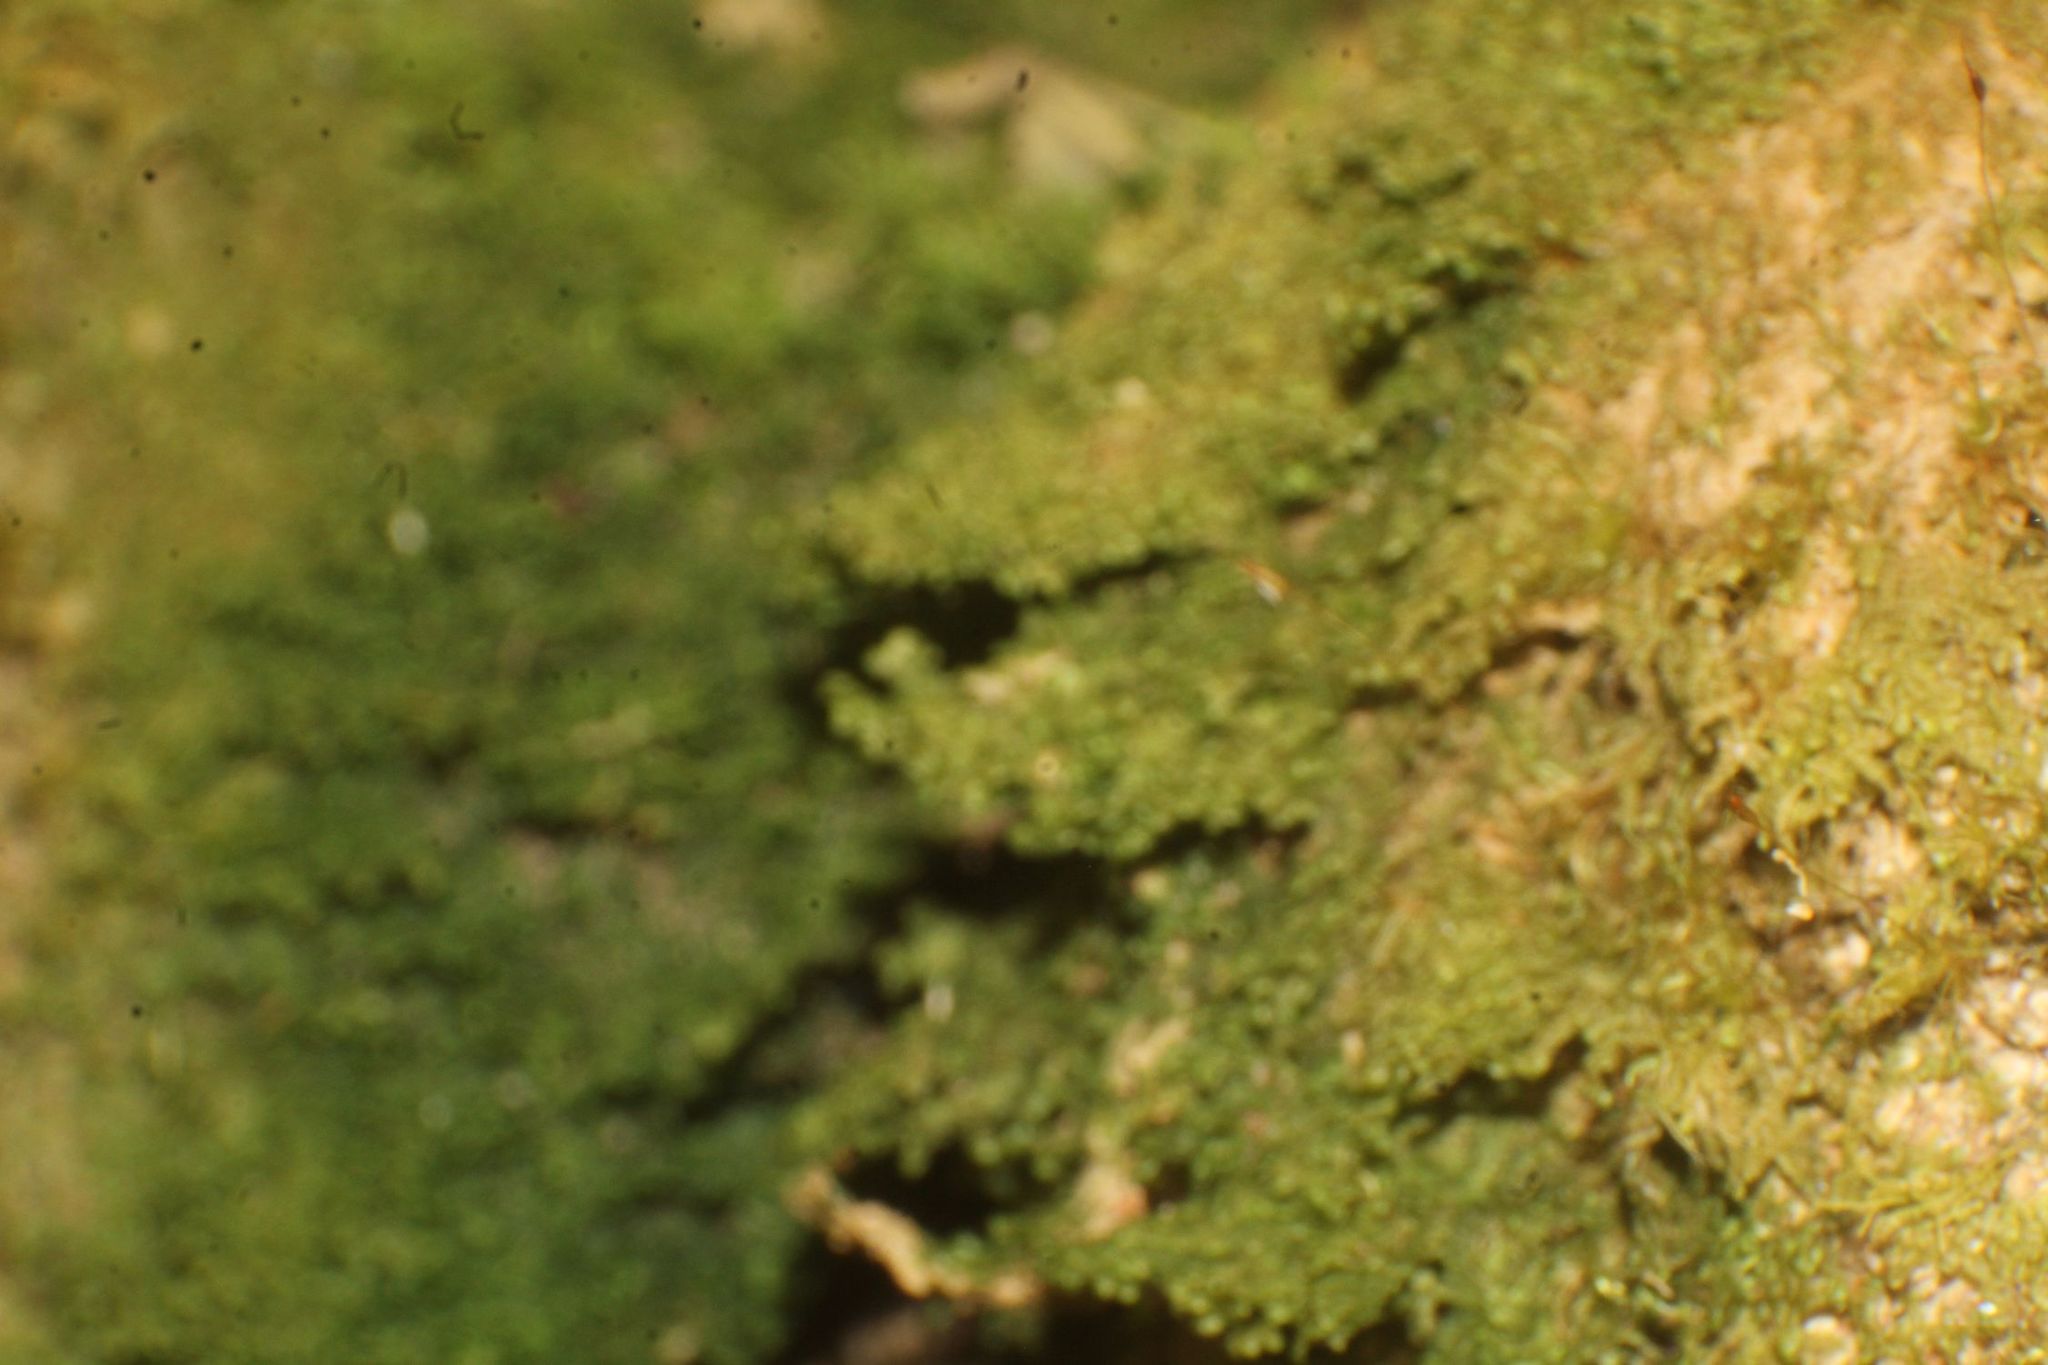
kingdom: Plantae
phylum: Marchantiophyta
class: Jungermanniopsida
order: Porellales
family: Radulaceae
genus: Radula
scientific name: Radula buccinifera
